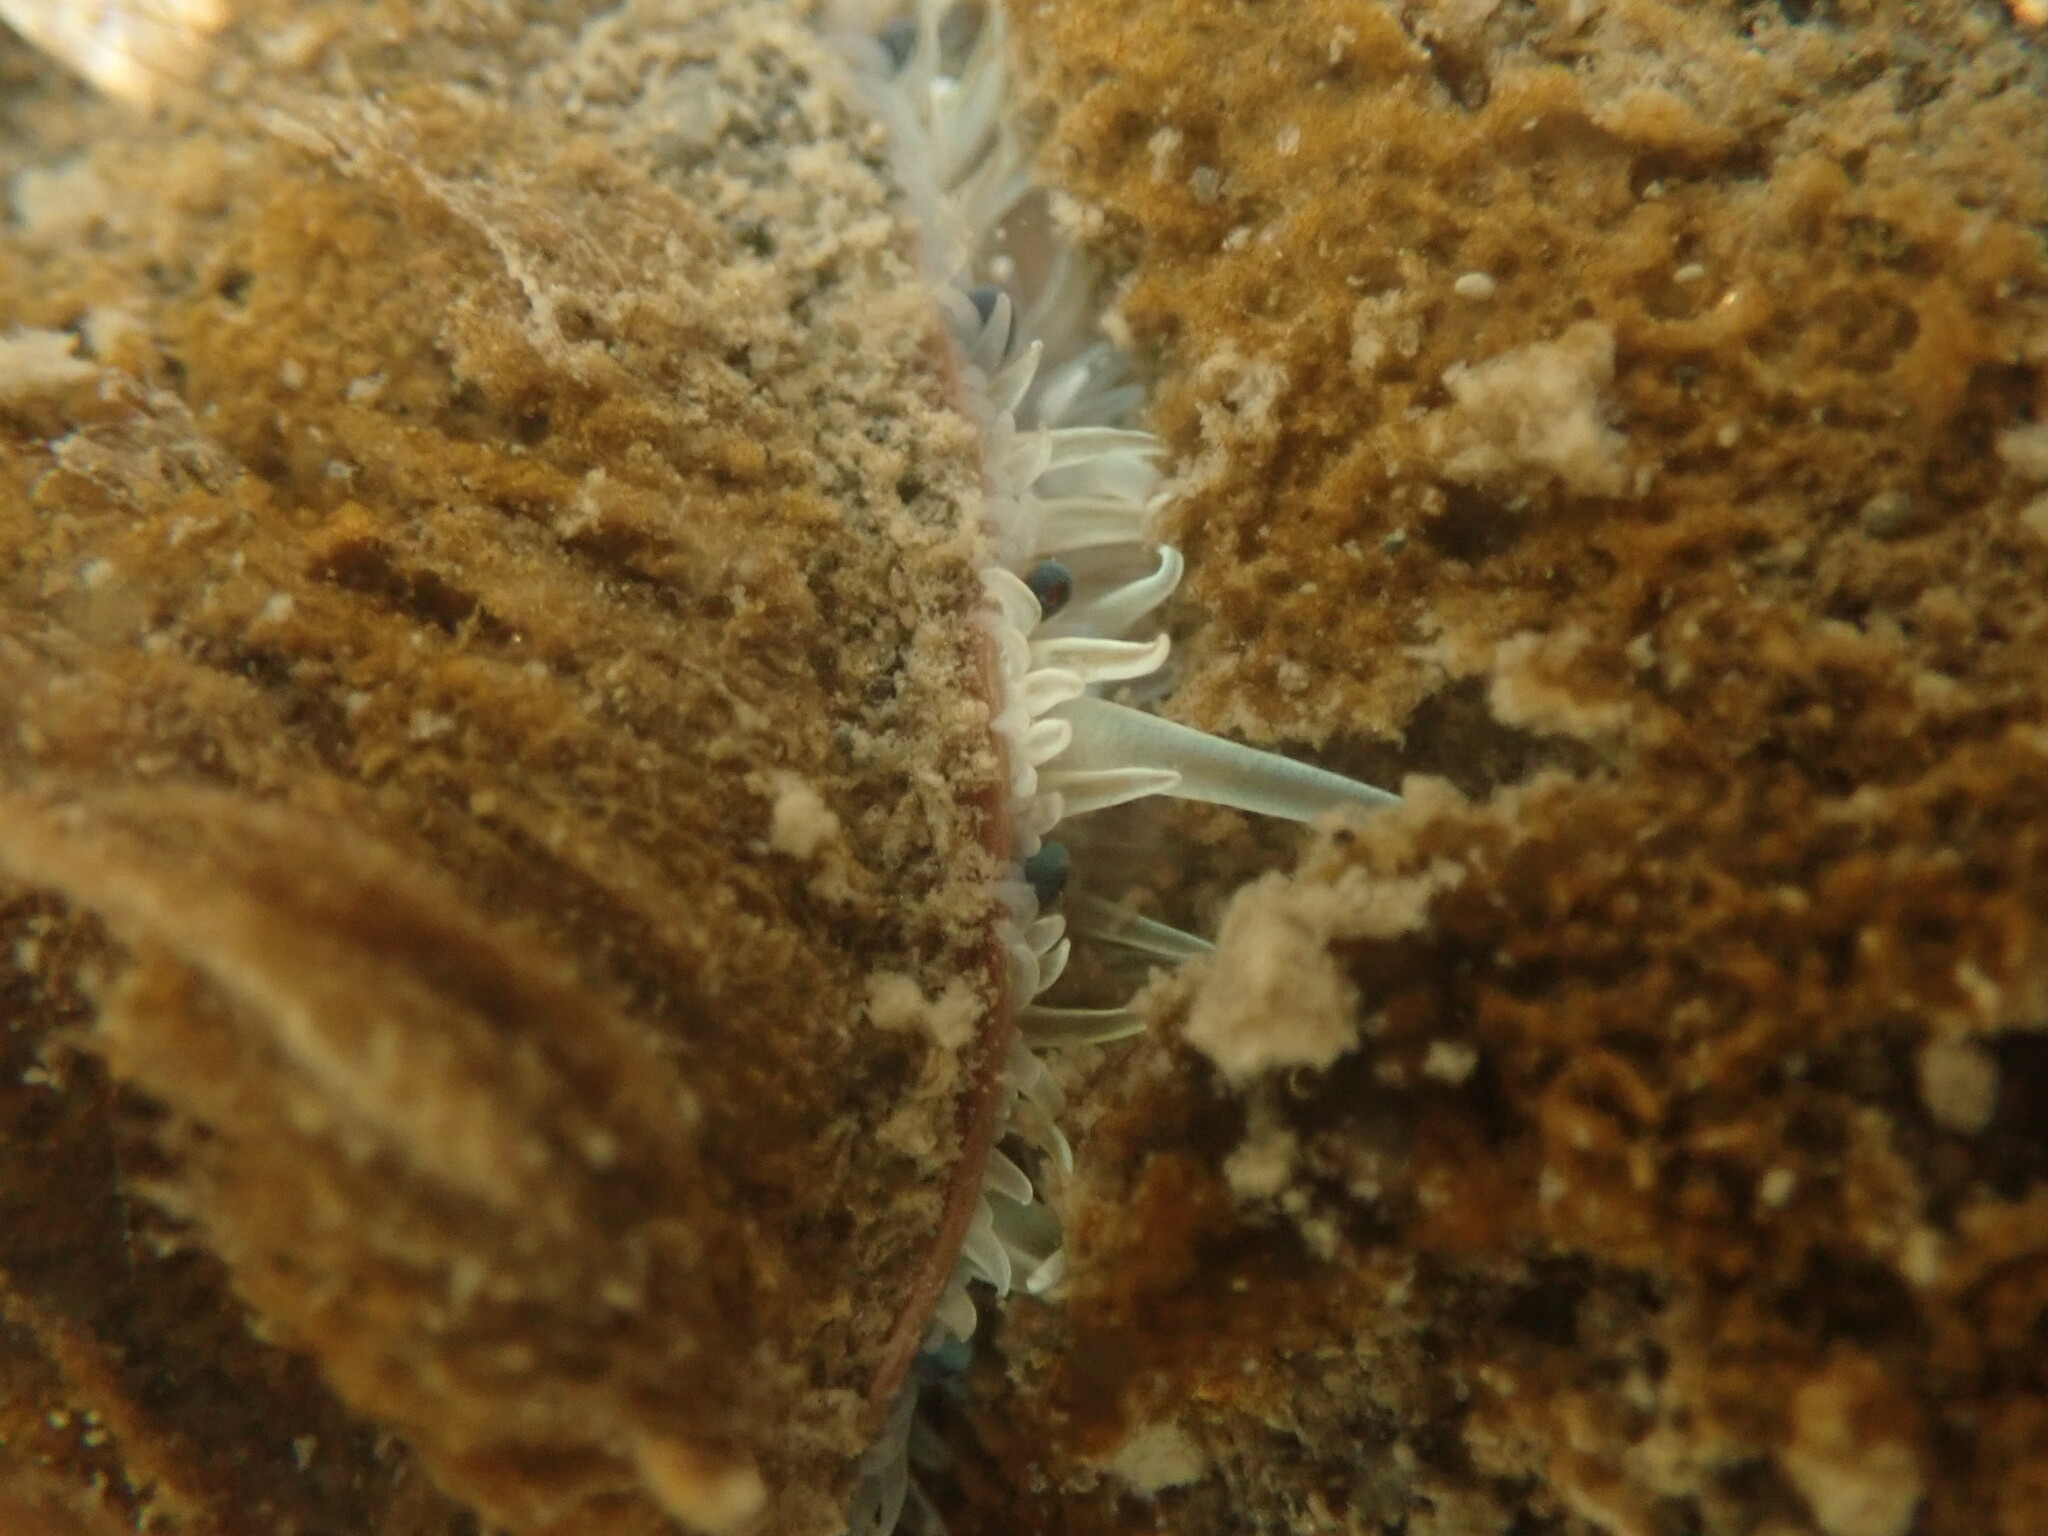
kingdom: Animalia
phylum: Mollusca
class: Bivalvia
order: Pectinida
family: Pectinidae
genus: Pecten
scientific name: Pecten novaezelandiae
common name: New zealand scallop
